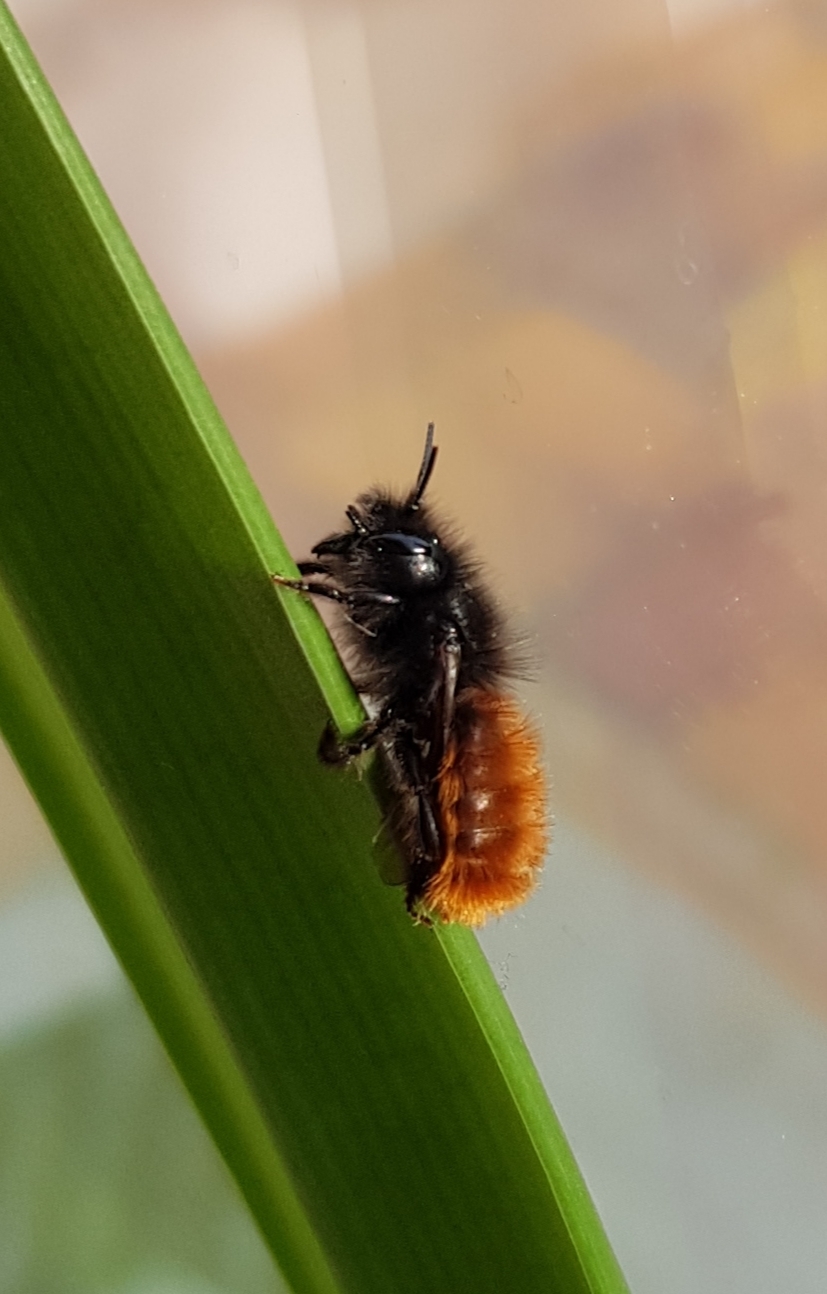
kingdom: Animalia
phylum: Arthropoda
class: Insecta
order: Hymenoptera
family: Megachilidae
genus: Osmia
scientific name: Osmia cornuta
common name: Mason bee
